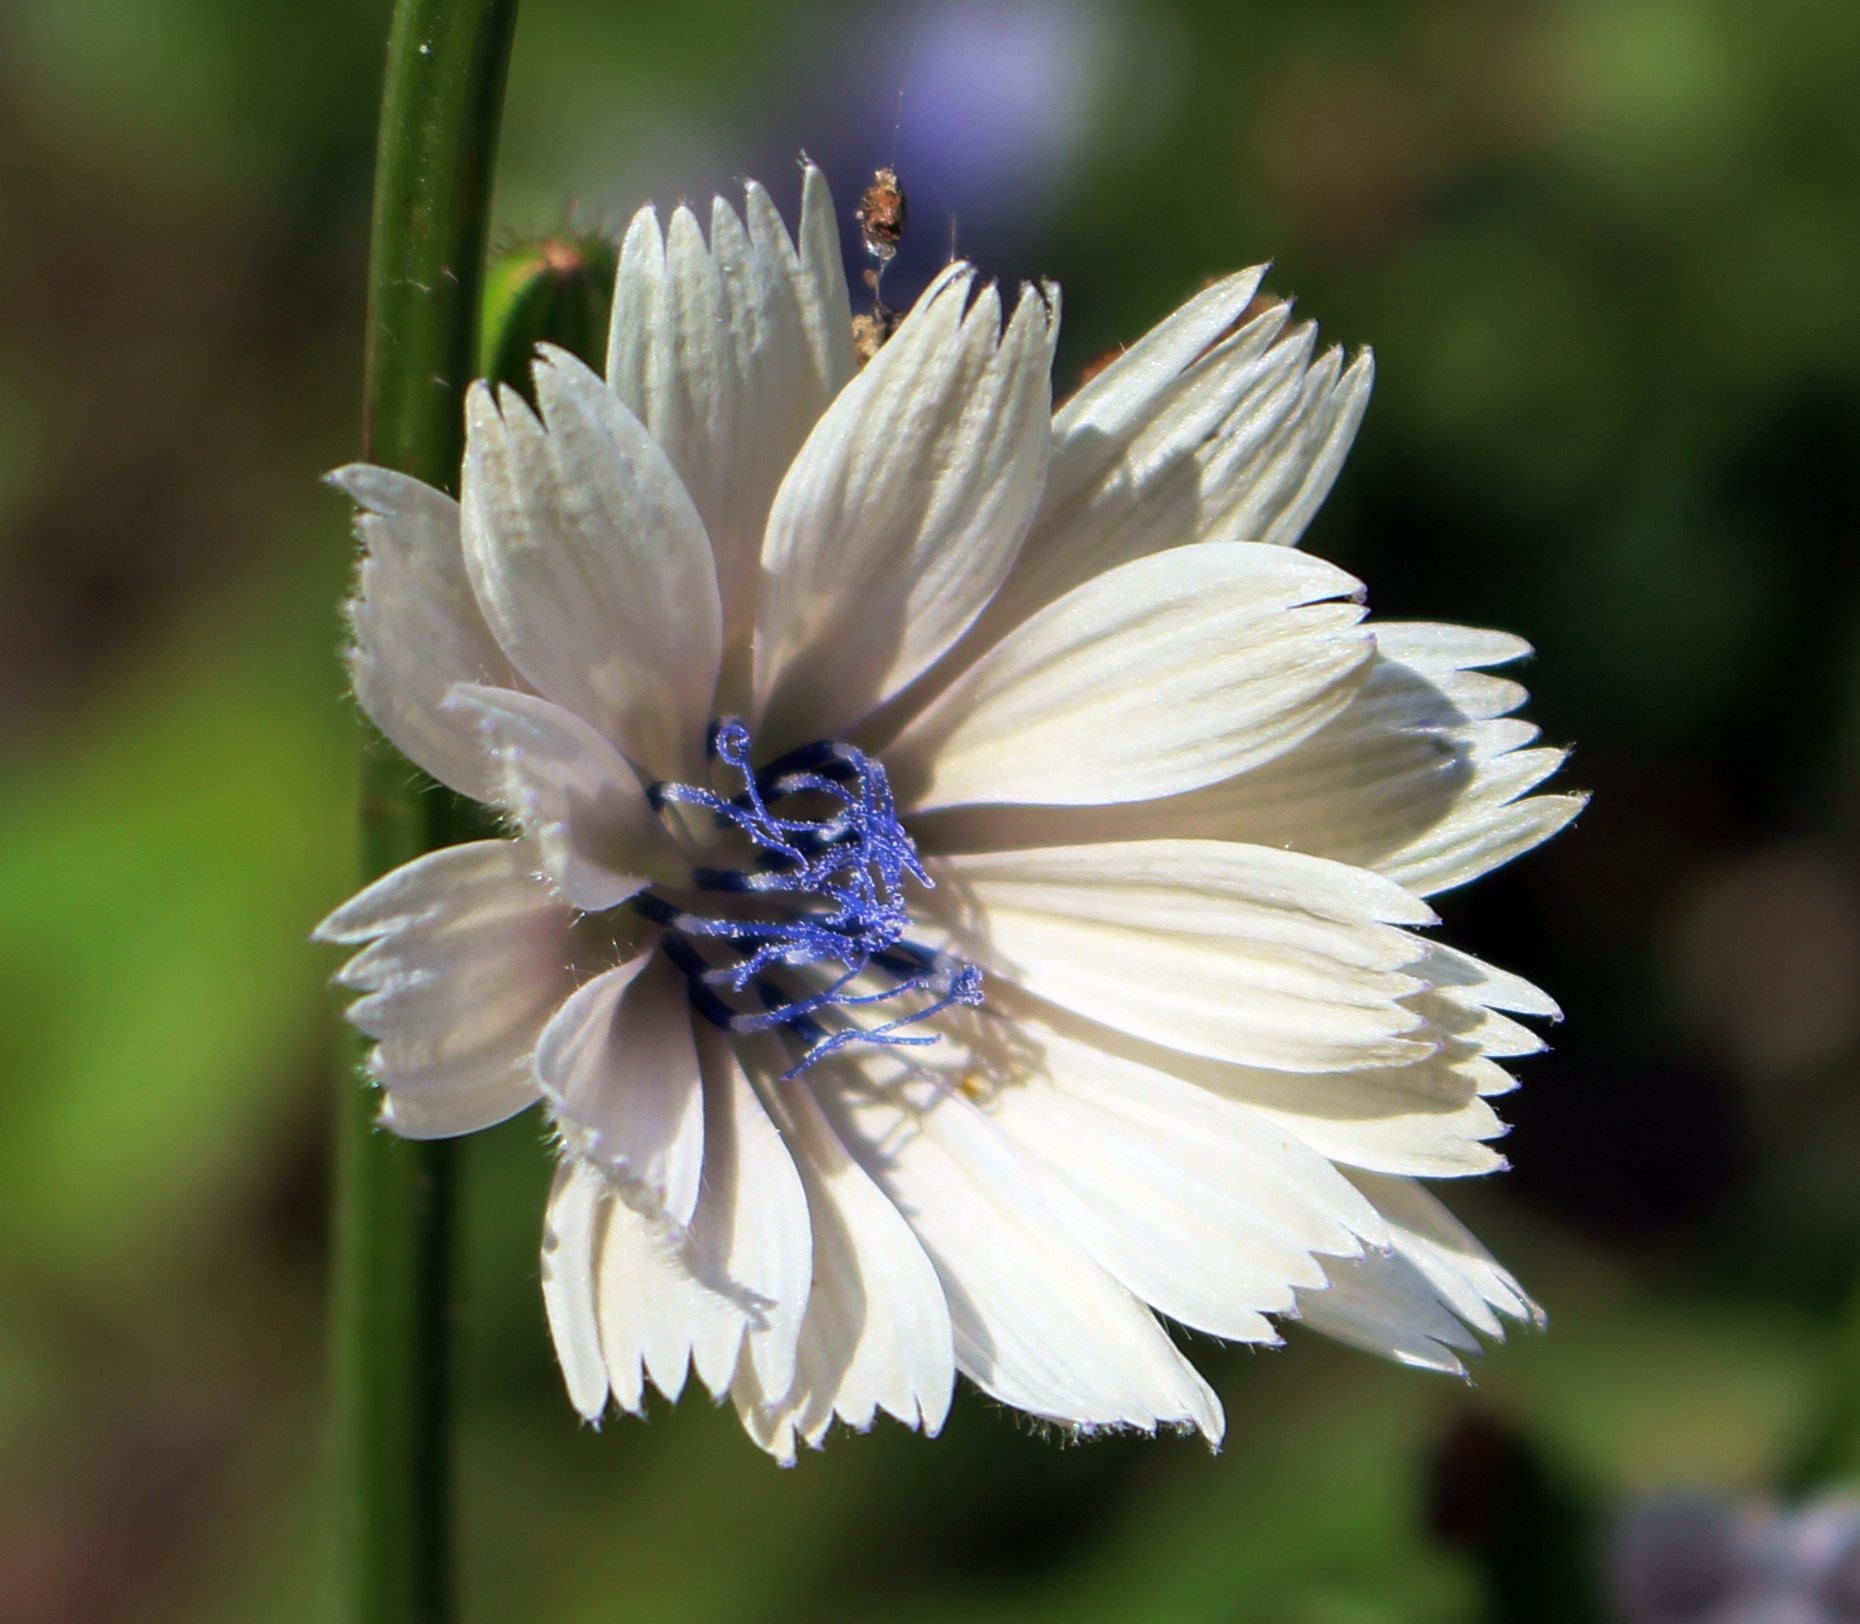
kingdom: Plantae
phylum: Tracheophyta
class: Magnoliopsida
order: Asterales
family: Asteraceae
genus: Cichorium
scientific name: Cichorium intybus
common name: Chicory
